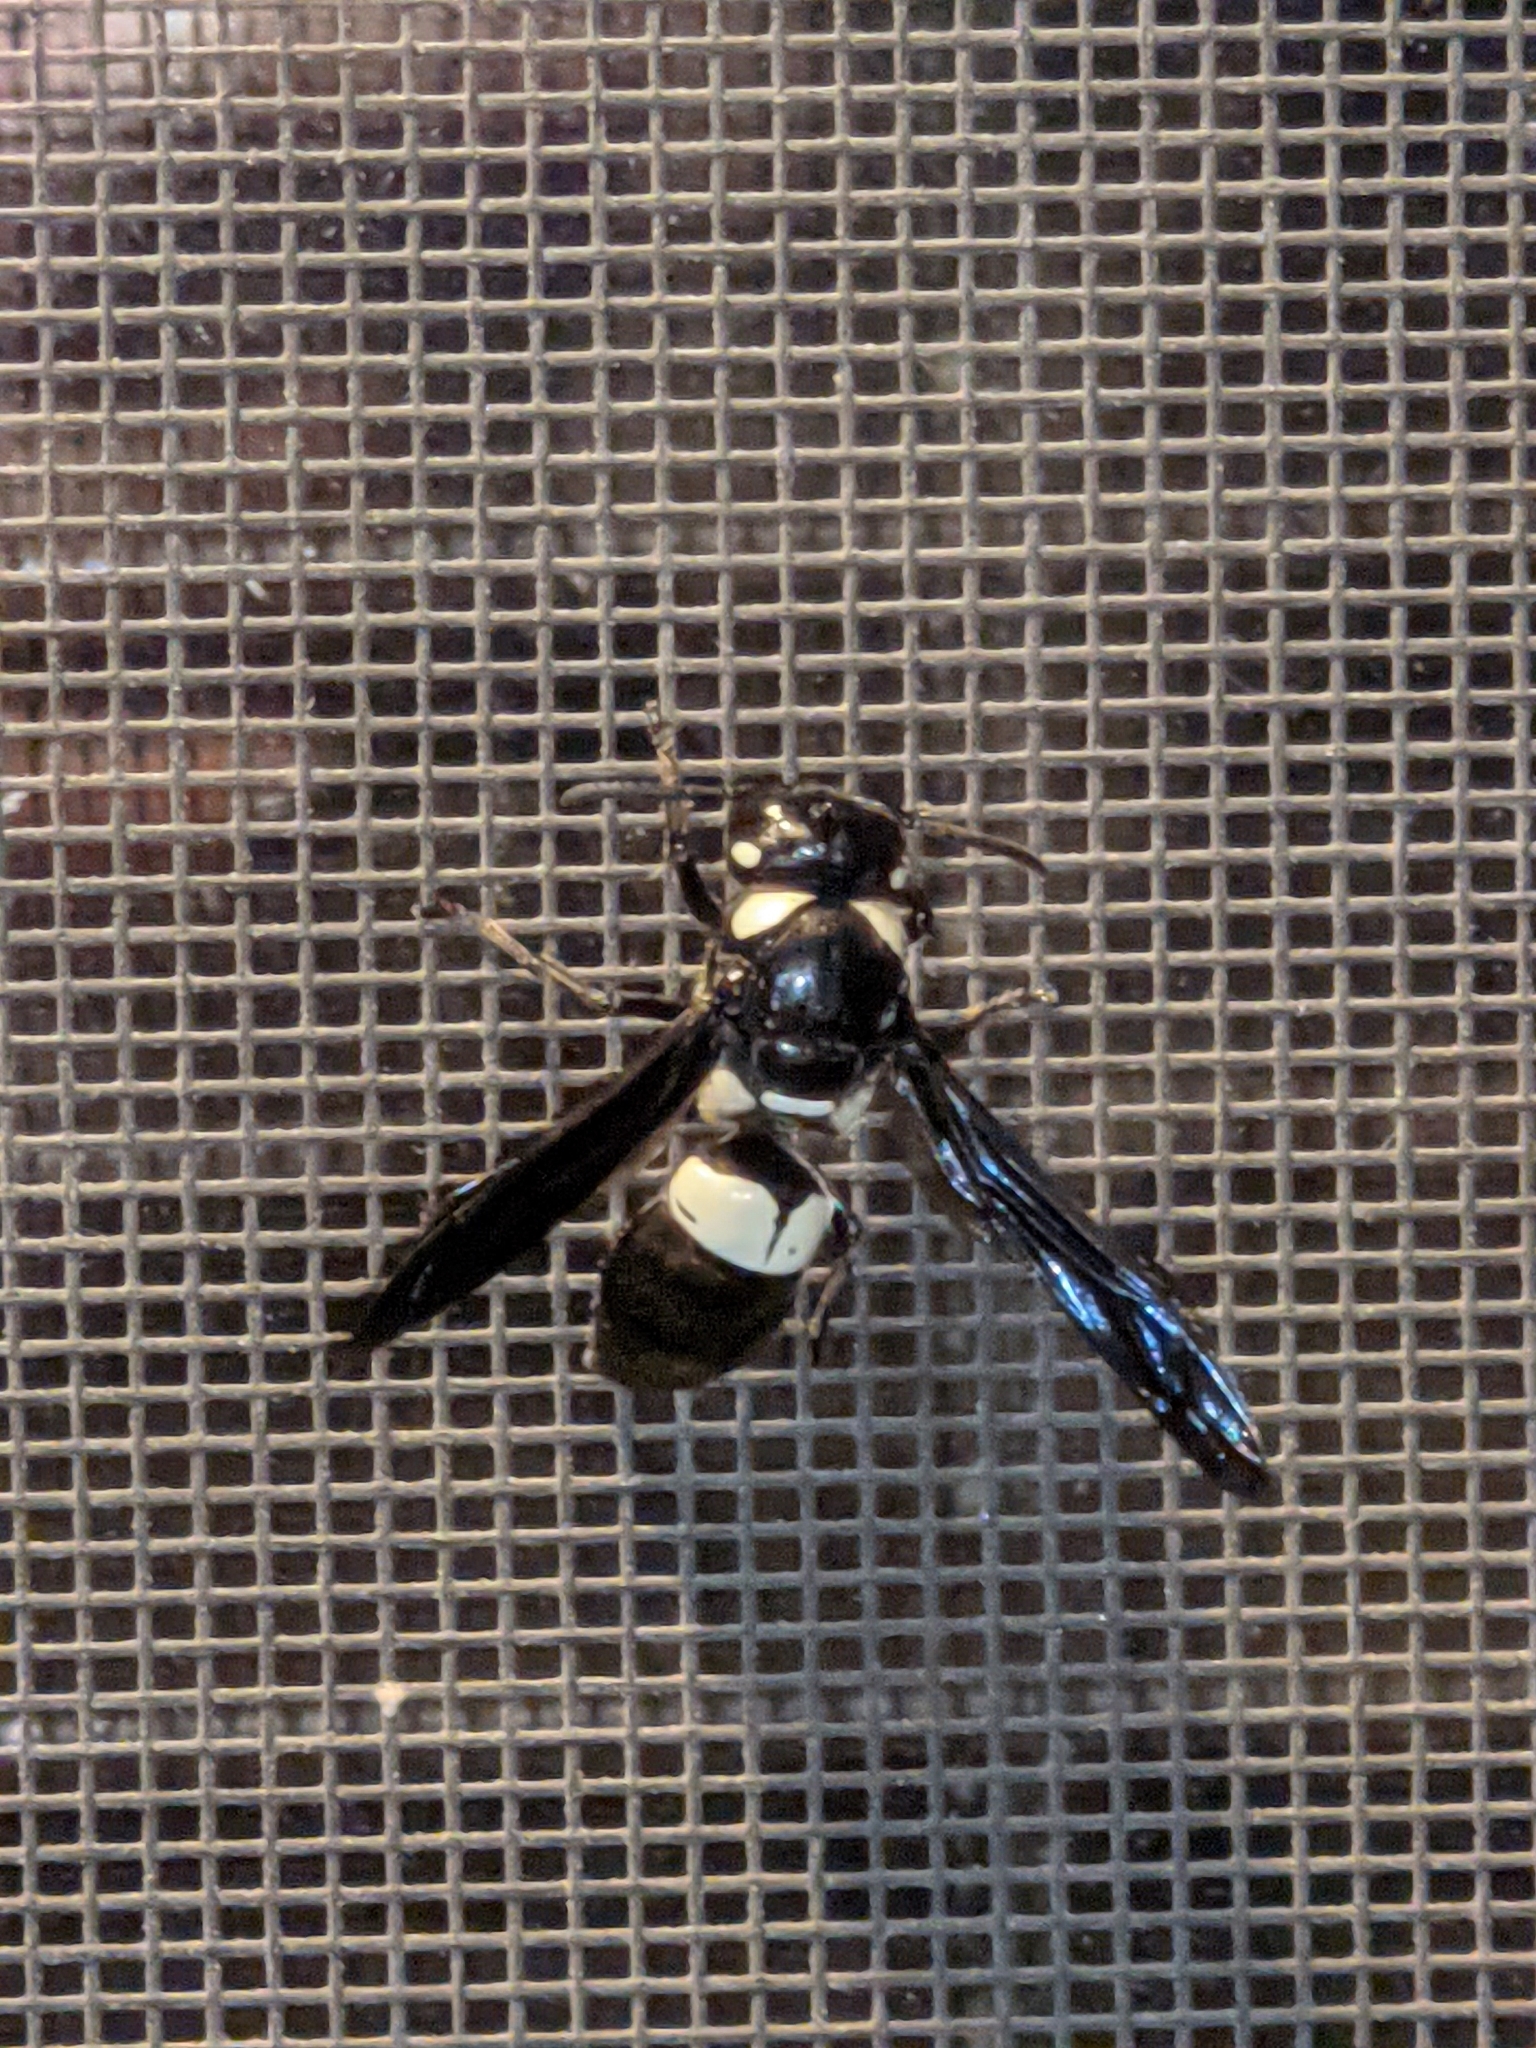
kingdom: Animalia
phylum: Arthropoda
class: Insecta
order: Hymenoptera
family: Eumenidae
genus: Euodynerus
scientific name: Euodynerus bidens
